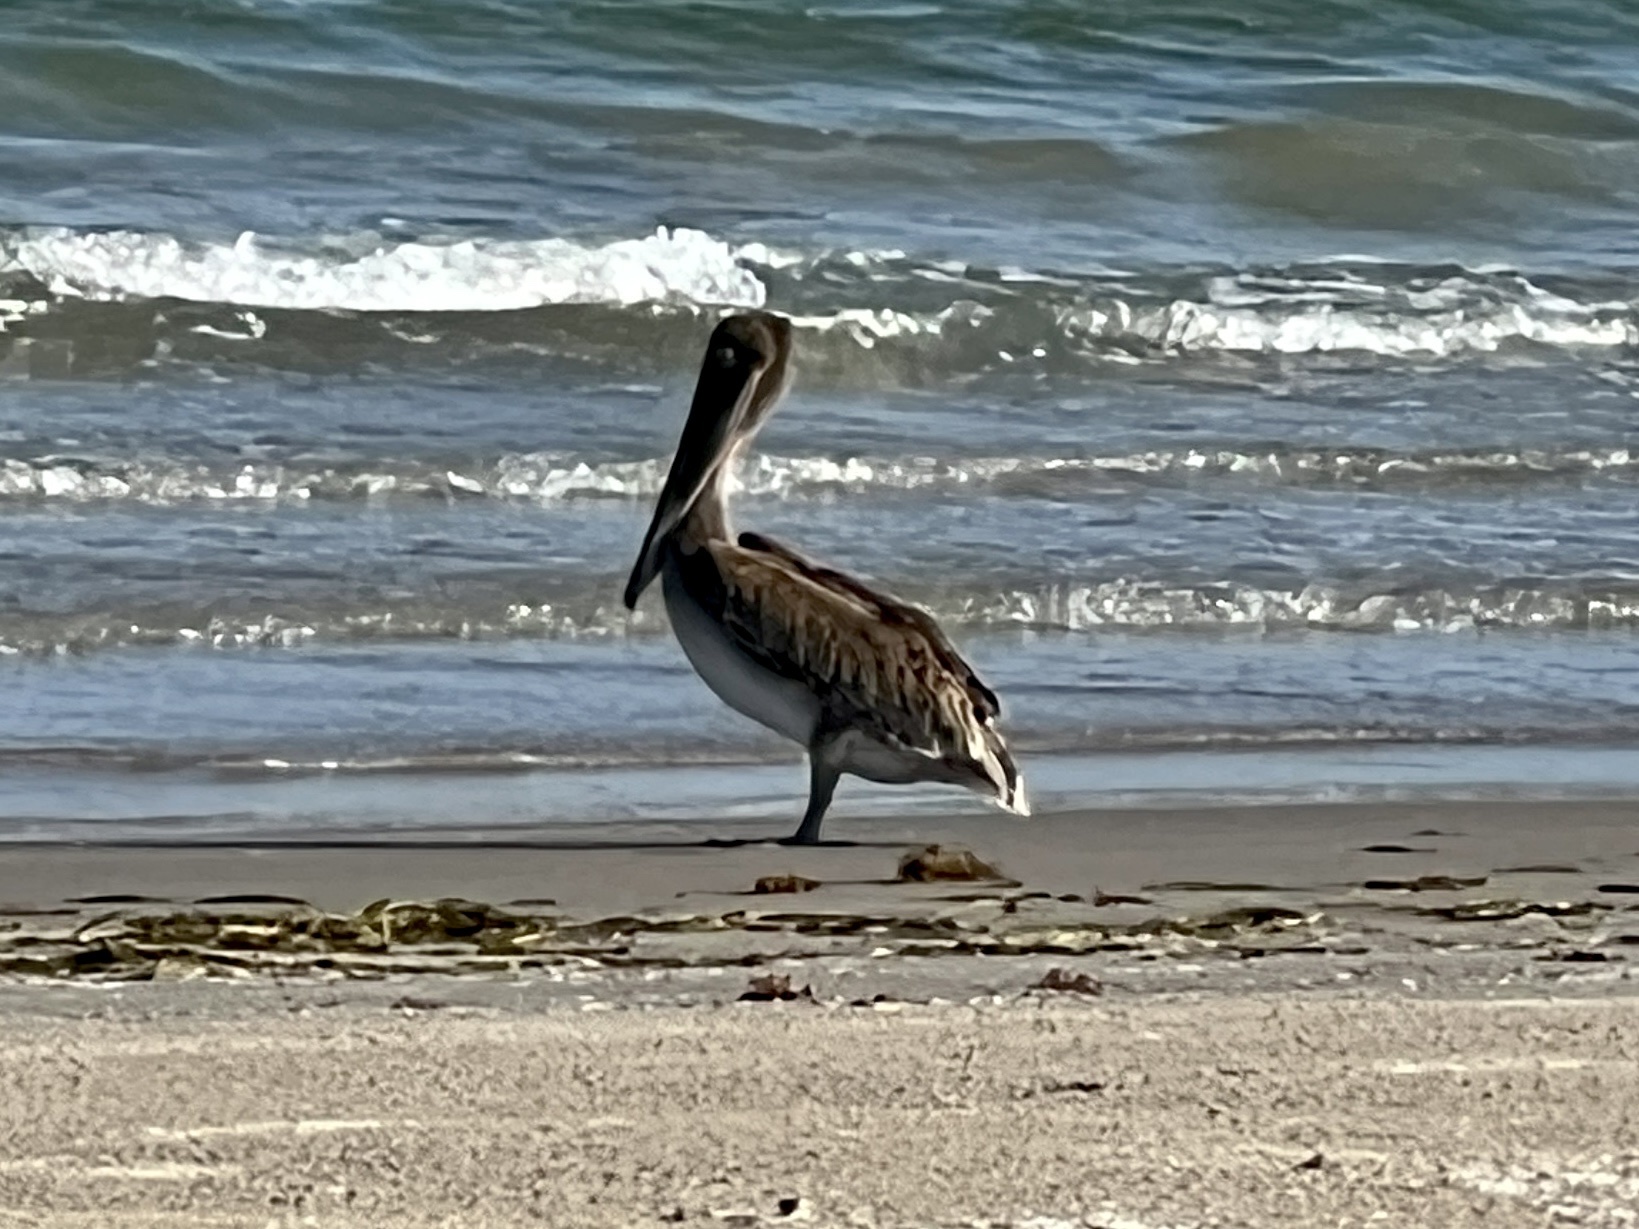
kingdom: Animalia
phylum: Chordata
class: Aves
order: Pelecaniformes
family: Pelecanidae
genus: Pelecanus
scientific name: Pelecanus occidentalis
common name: Brown pelican
